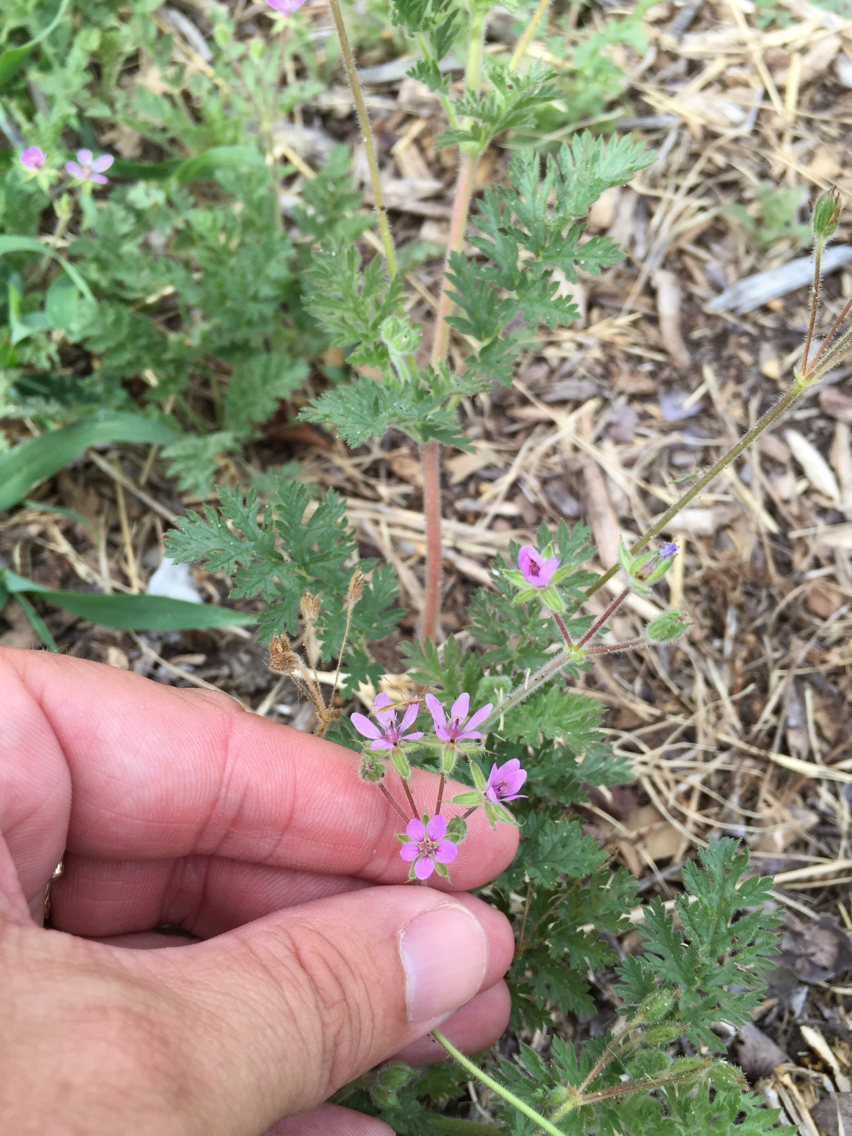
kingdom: Plantae
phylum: Tracheophyta
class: Magnoliopsida
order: Geraniales
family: Geraniaceae
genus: Erodium
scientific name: Erodium cicutarium
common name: Common stork's-bill
